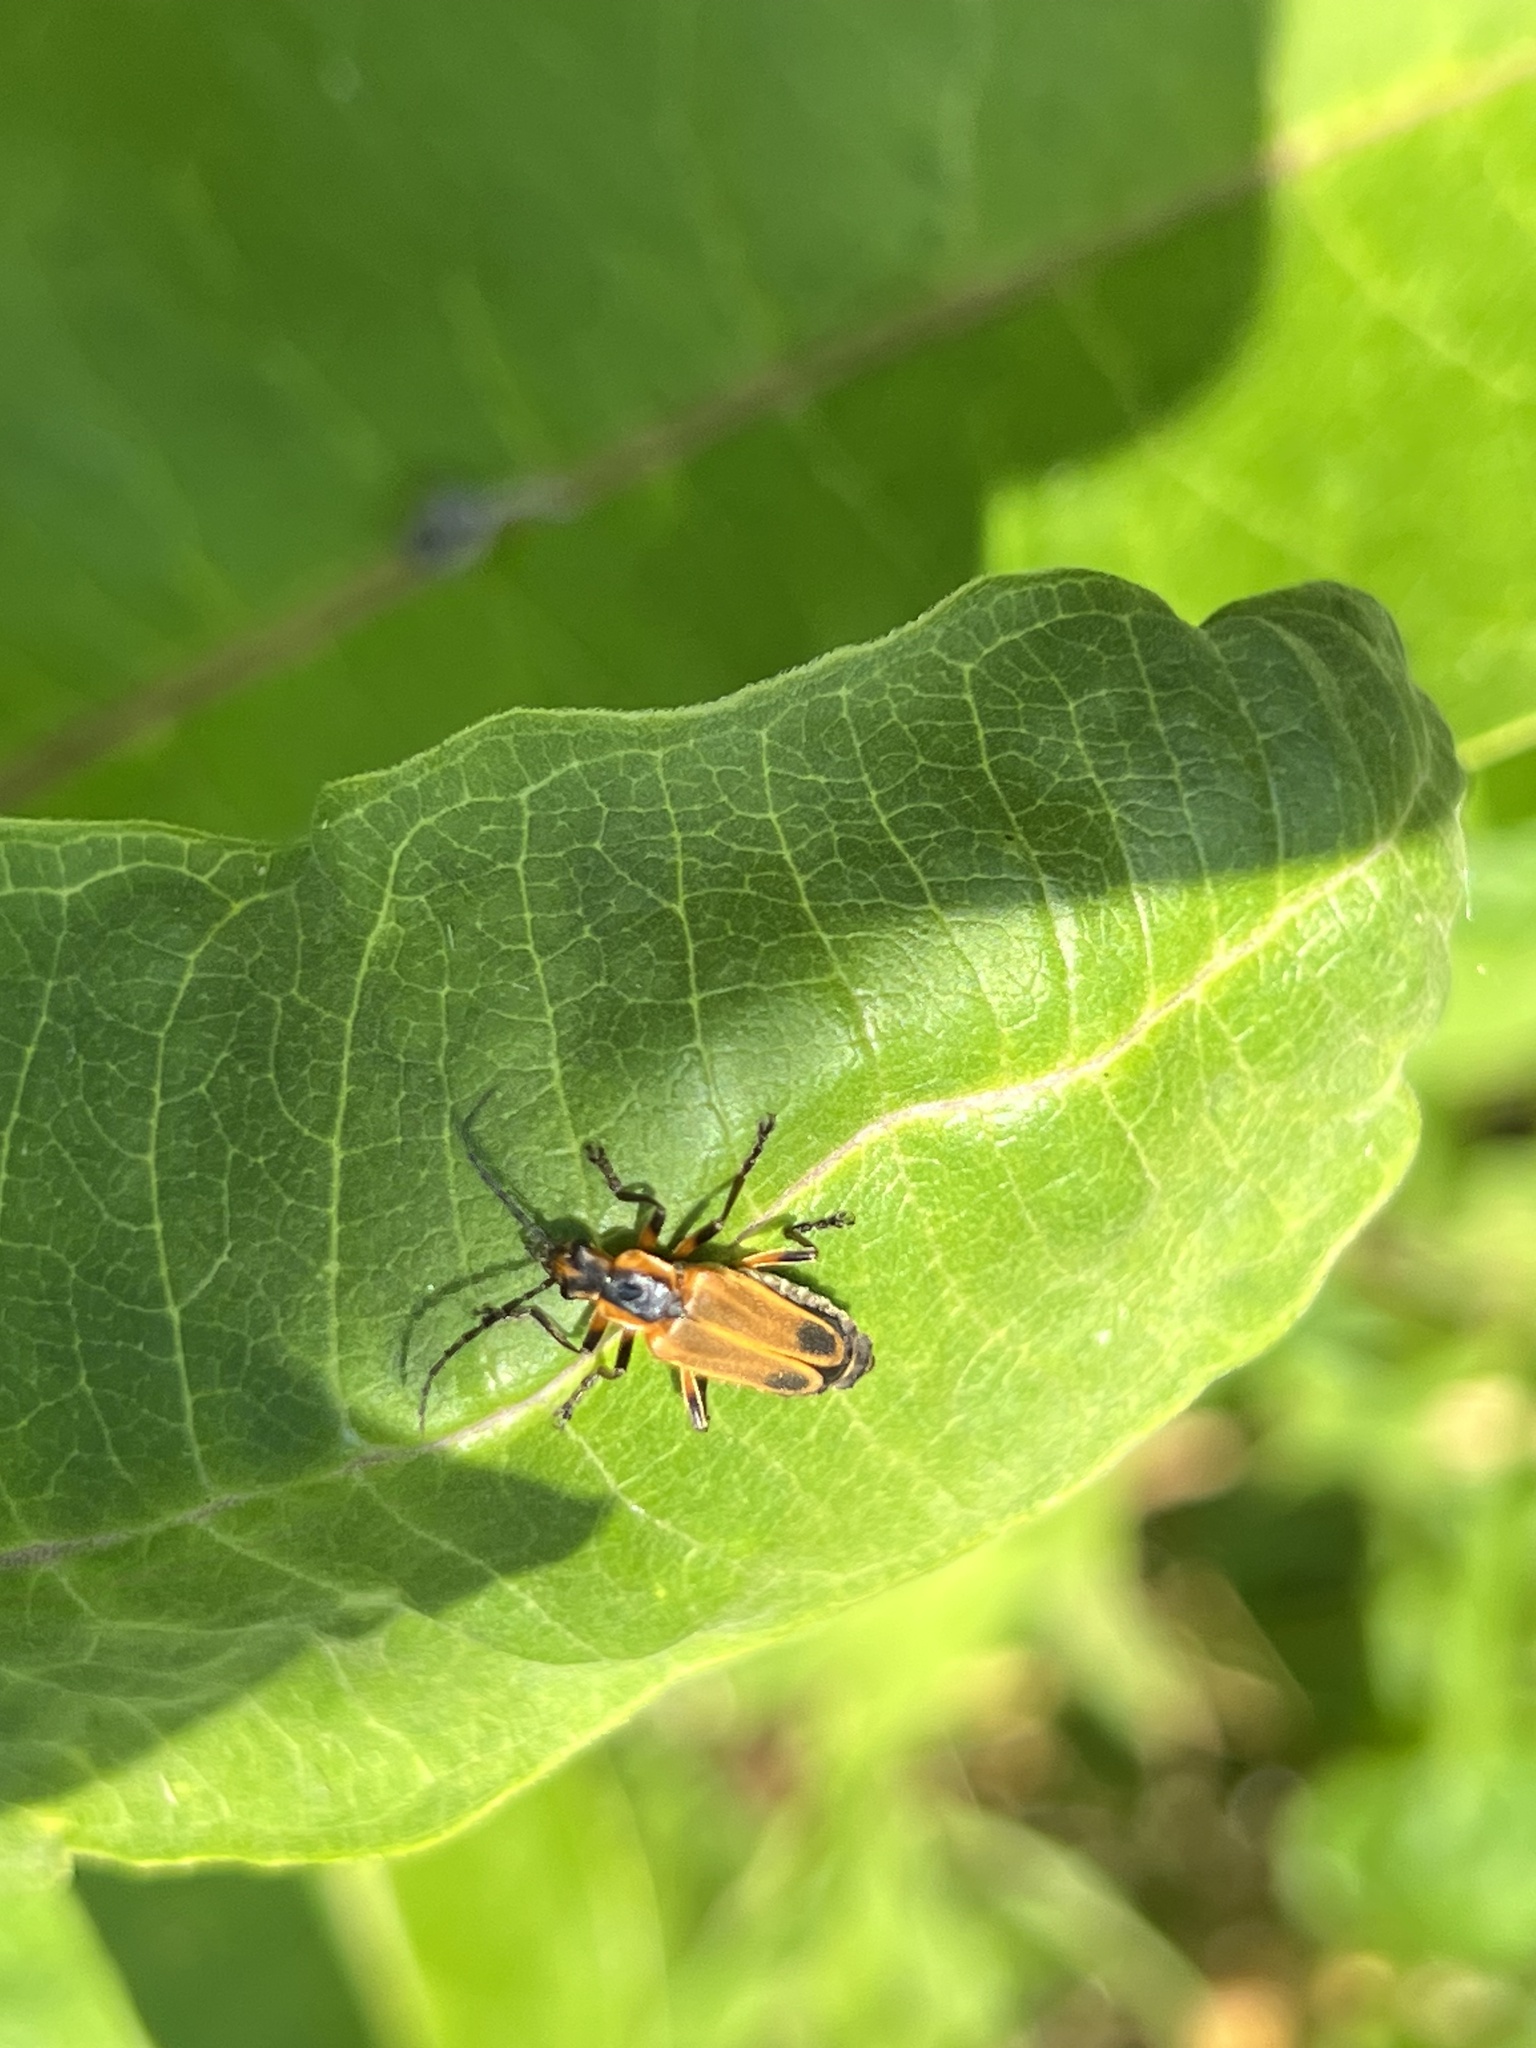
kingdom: Animalia
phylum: Arthropoda
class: Insecta
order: Coleoptera
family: Cantharidae
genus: Chauliognathus
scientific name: Chauliognathus marginatus
